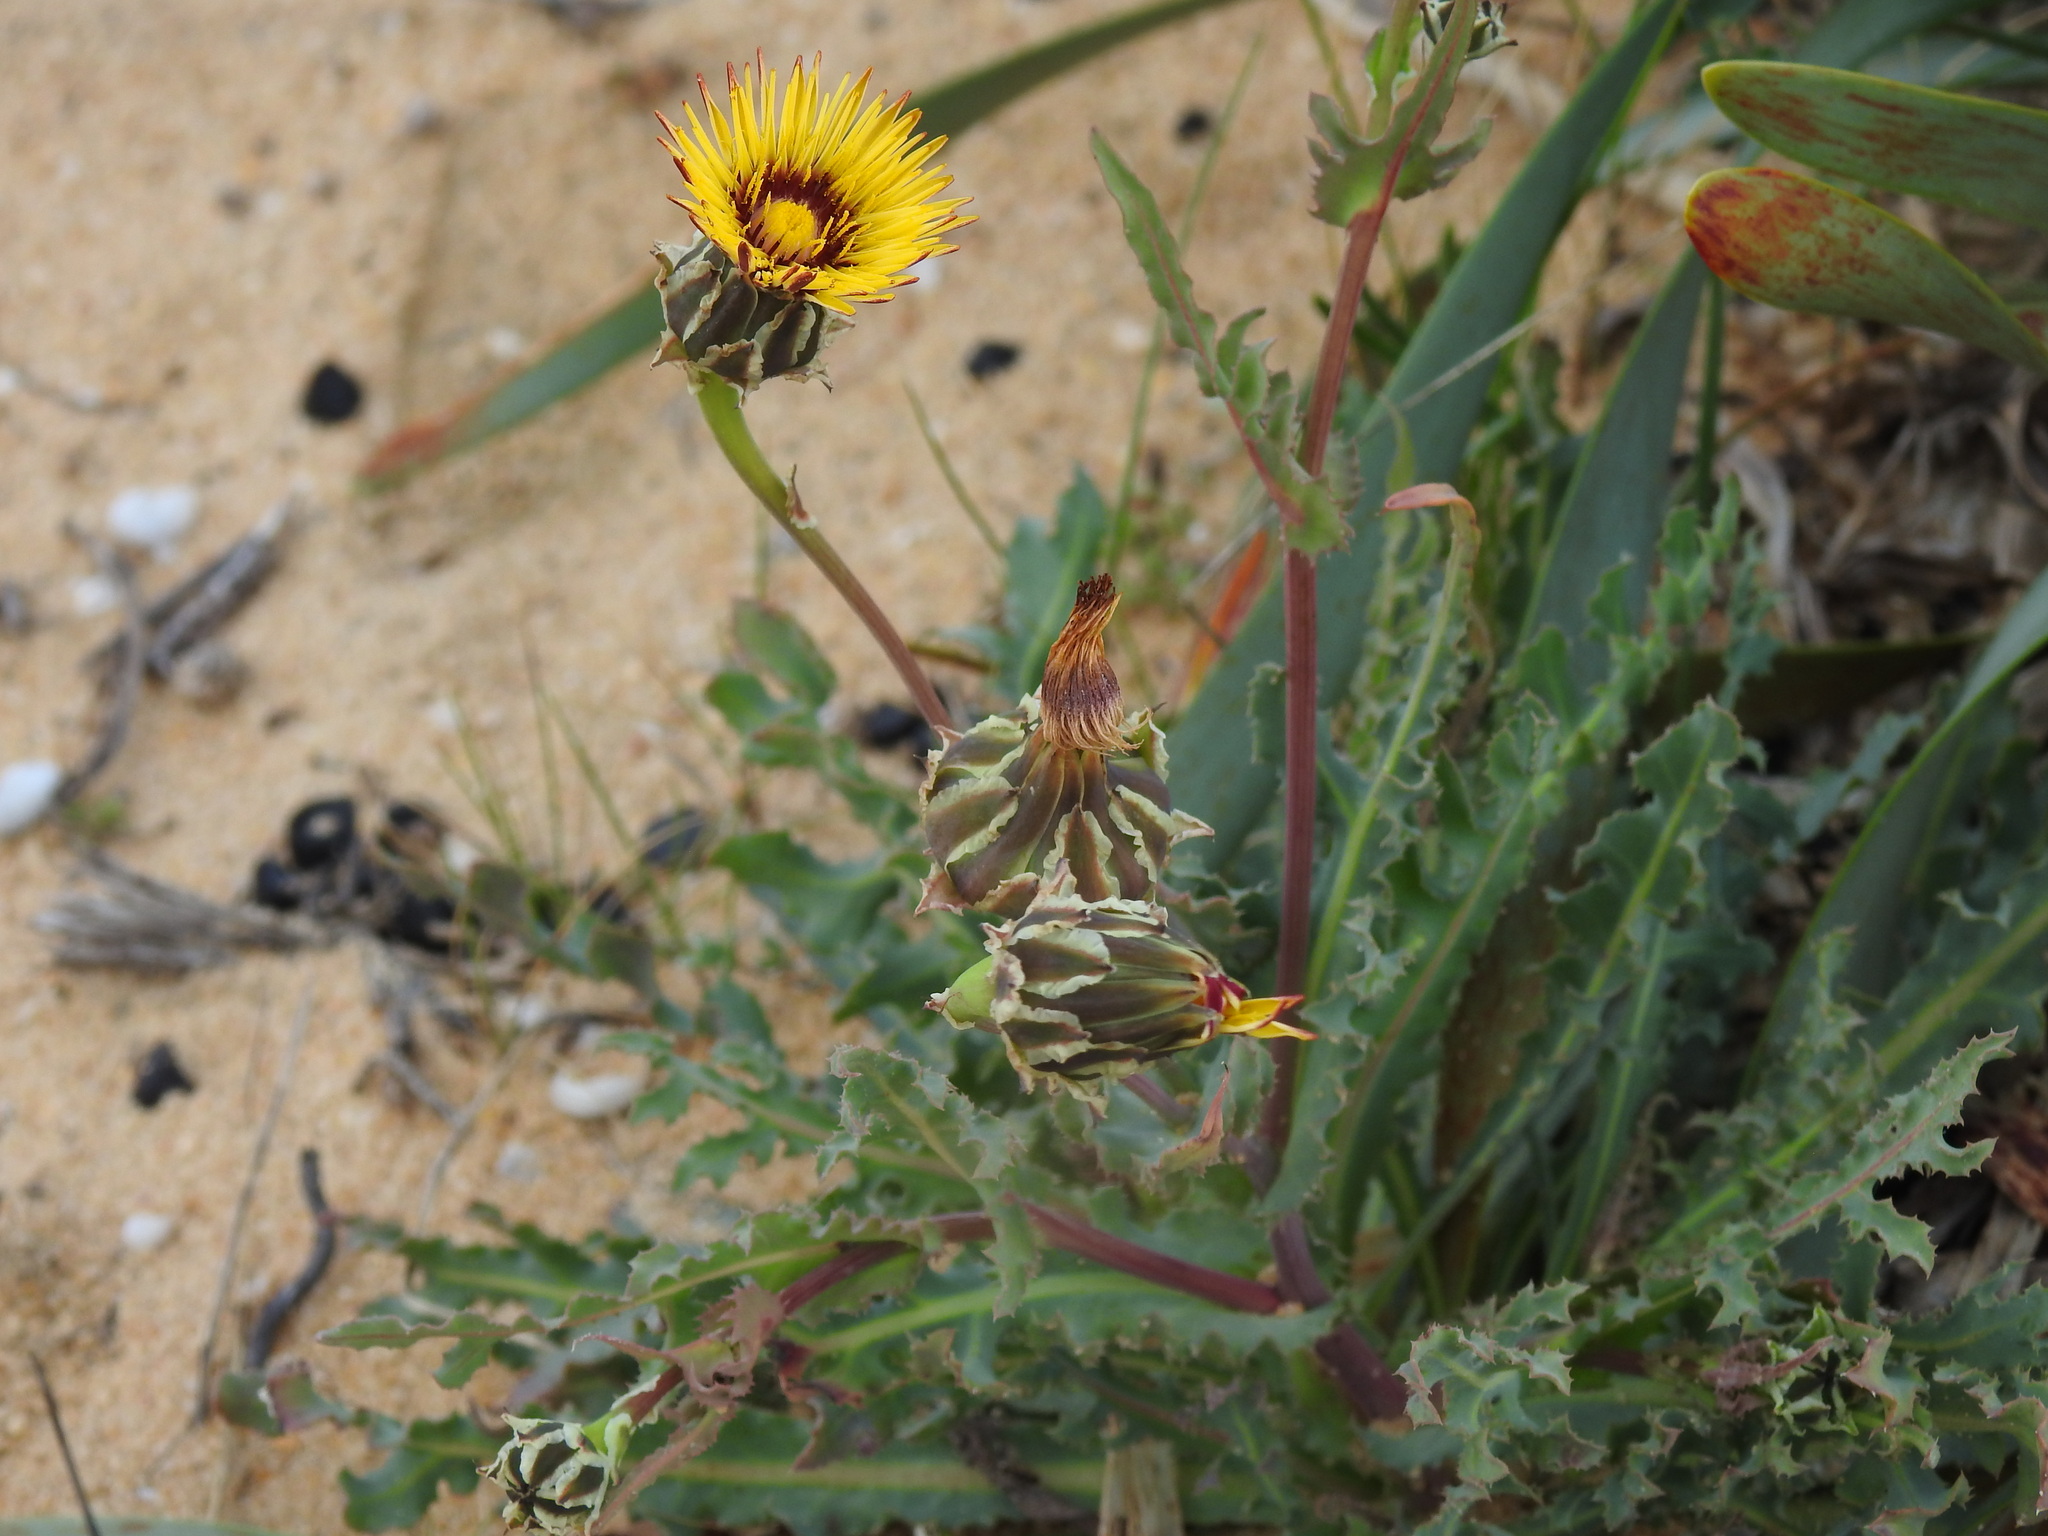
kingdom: Plantae
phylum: Tracheophyta
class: Magnoliopsida
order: Asterales
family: Asteraceae
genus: Reichardia
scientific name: Reichardia gaditana
